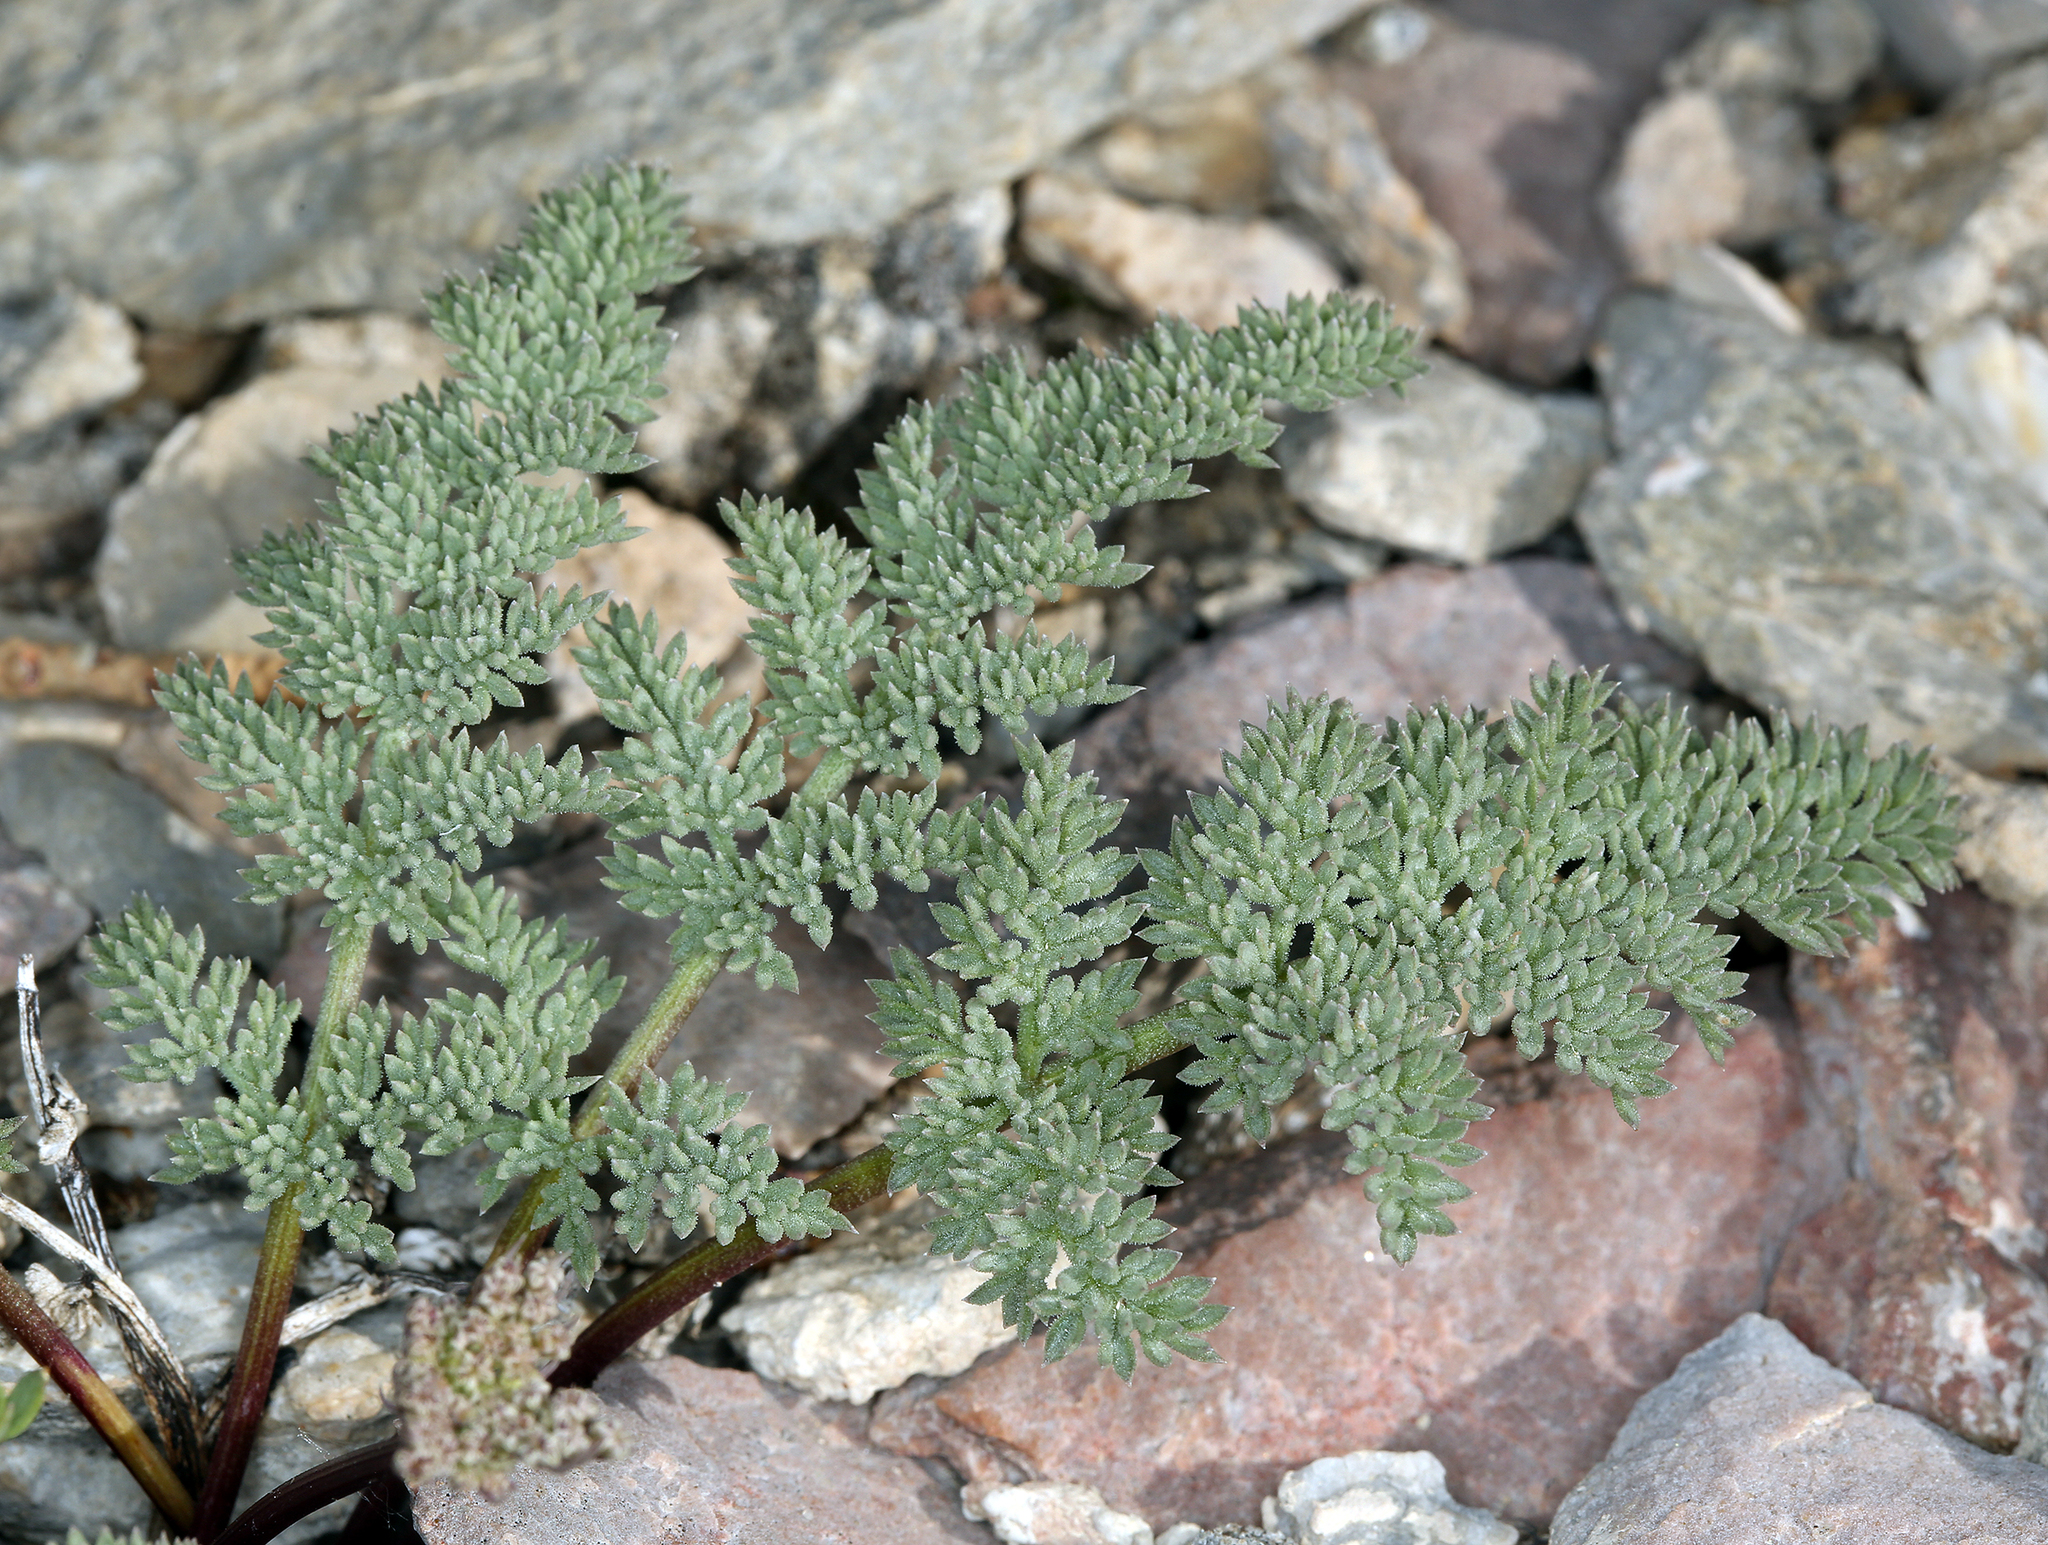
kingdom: Plantae
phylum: Tracheophyta
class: Magnoliopsida
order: Apiales
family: Apiaceae
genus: Aulospermum
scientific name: Aulospermum aboriginum
